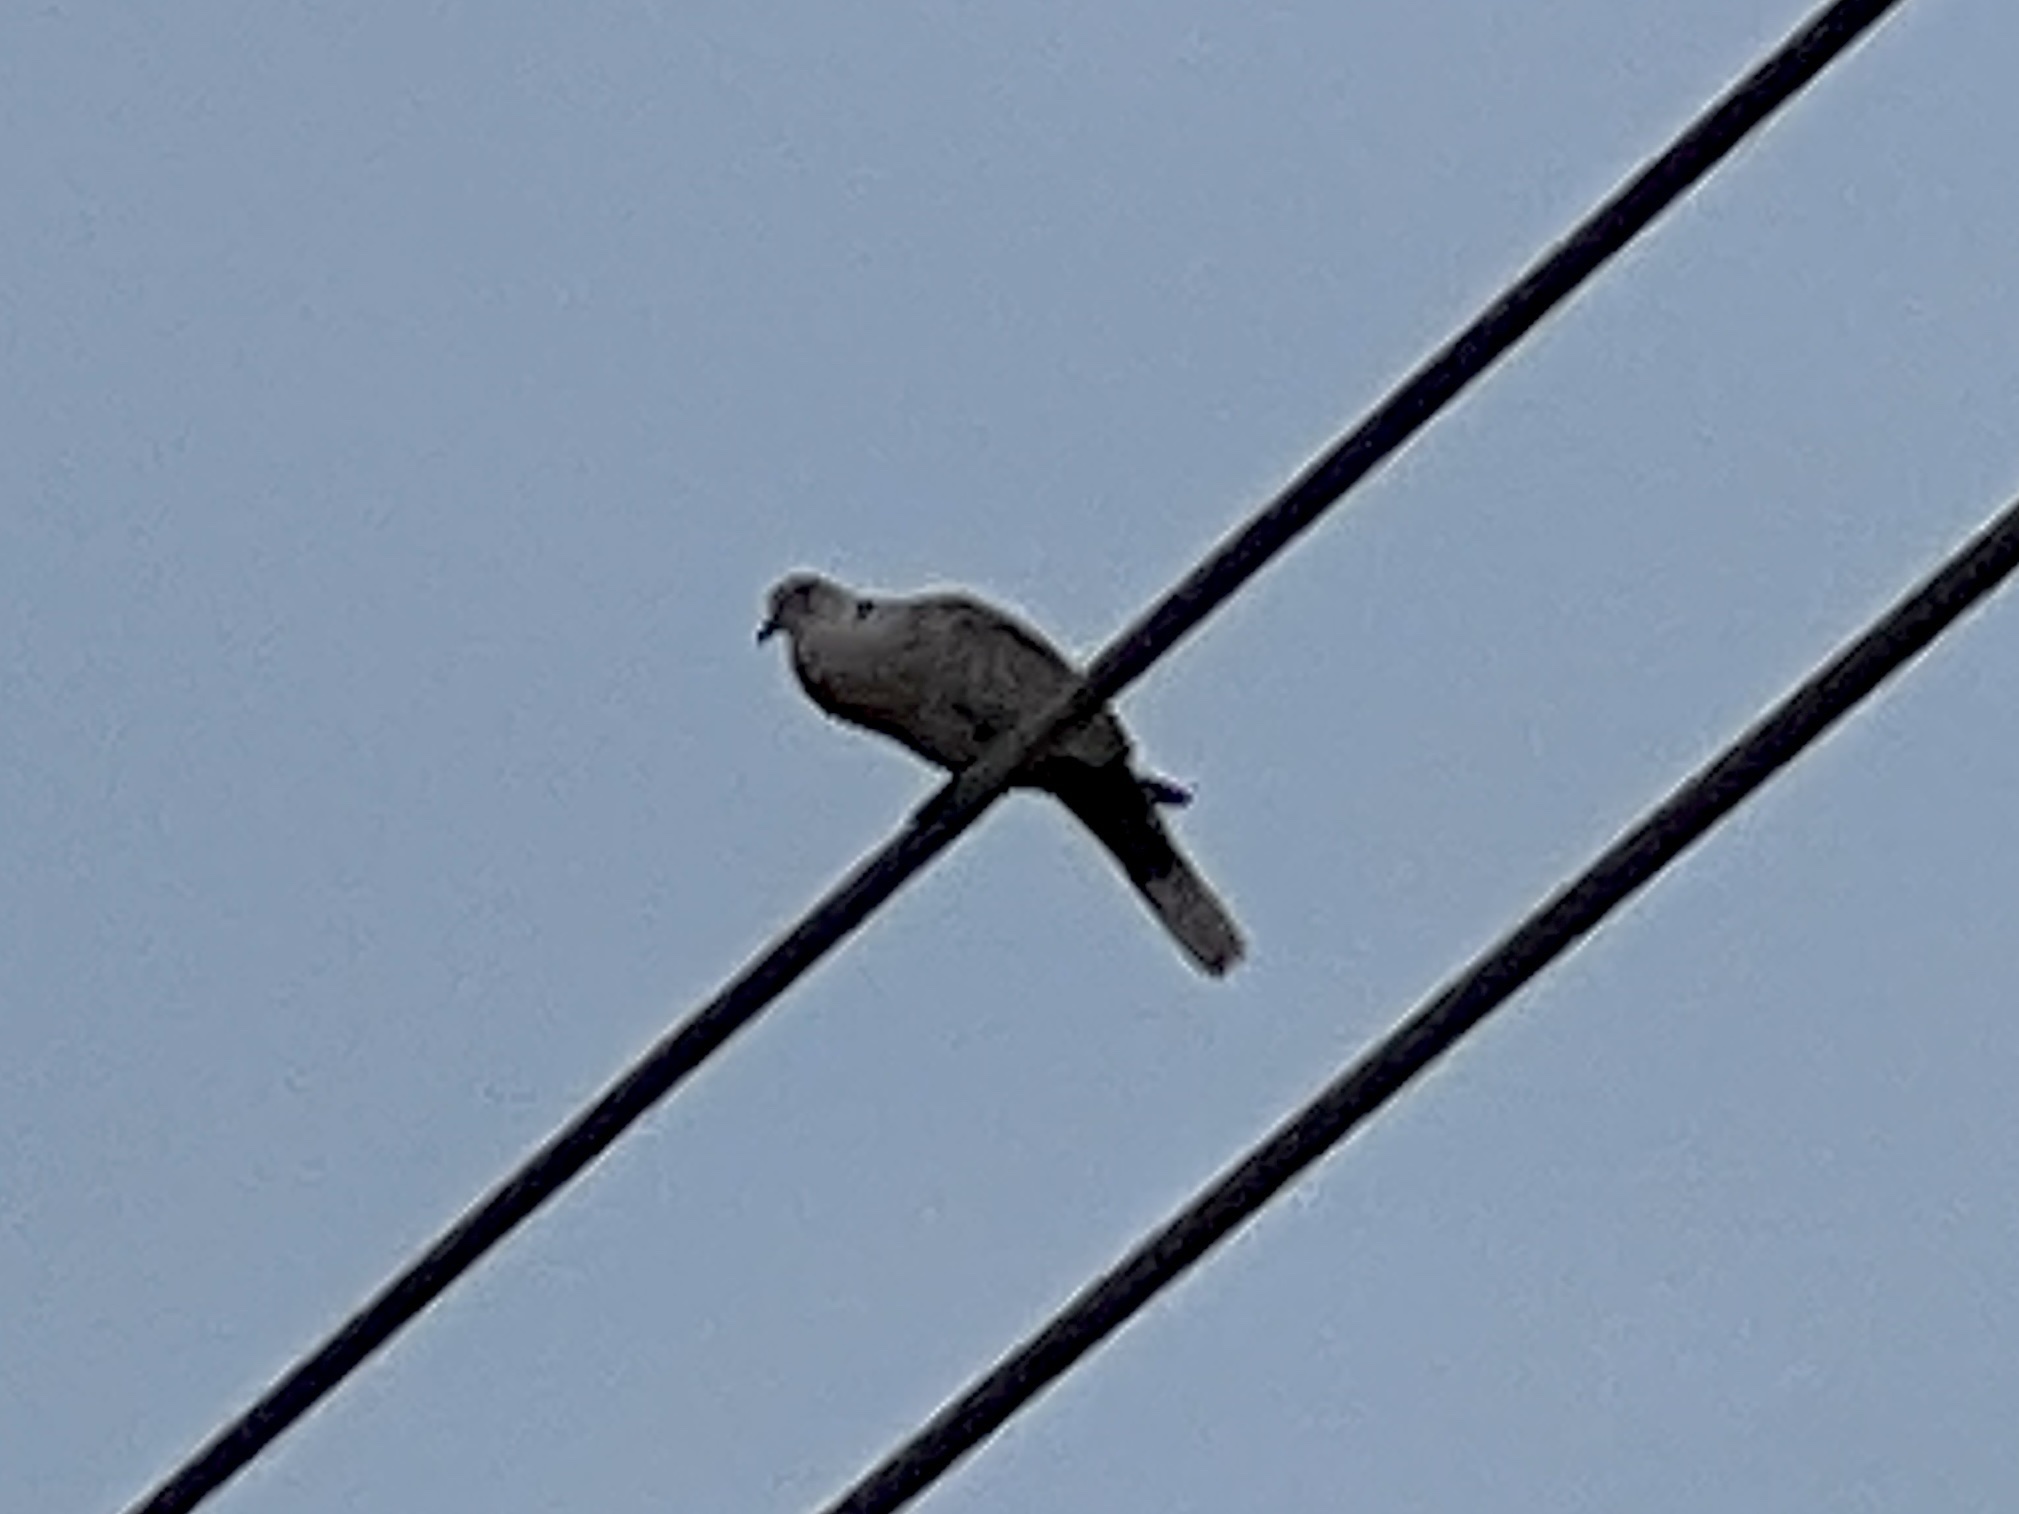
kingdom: Animalia
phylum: Chordata
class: Aves
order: Columbiformes
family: Columbidae
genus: Streptopelia
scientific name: Streptopelia decaocto
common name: Eurasian collared dove
